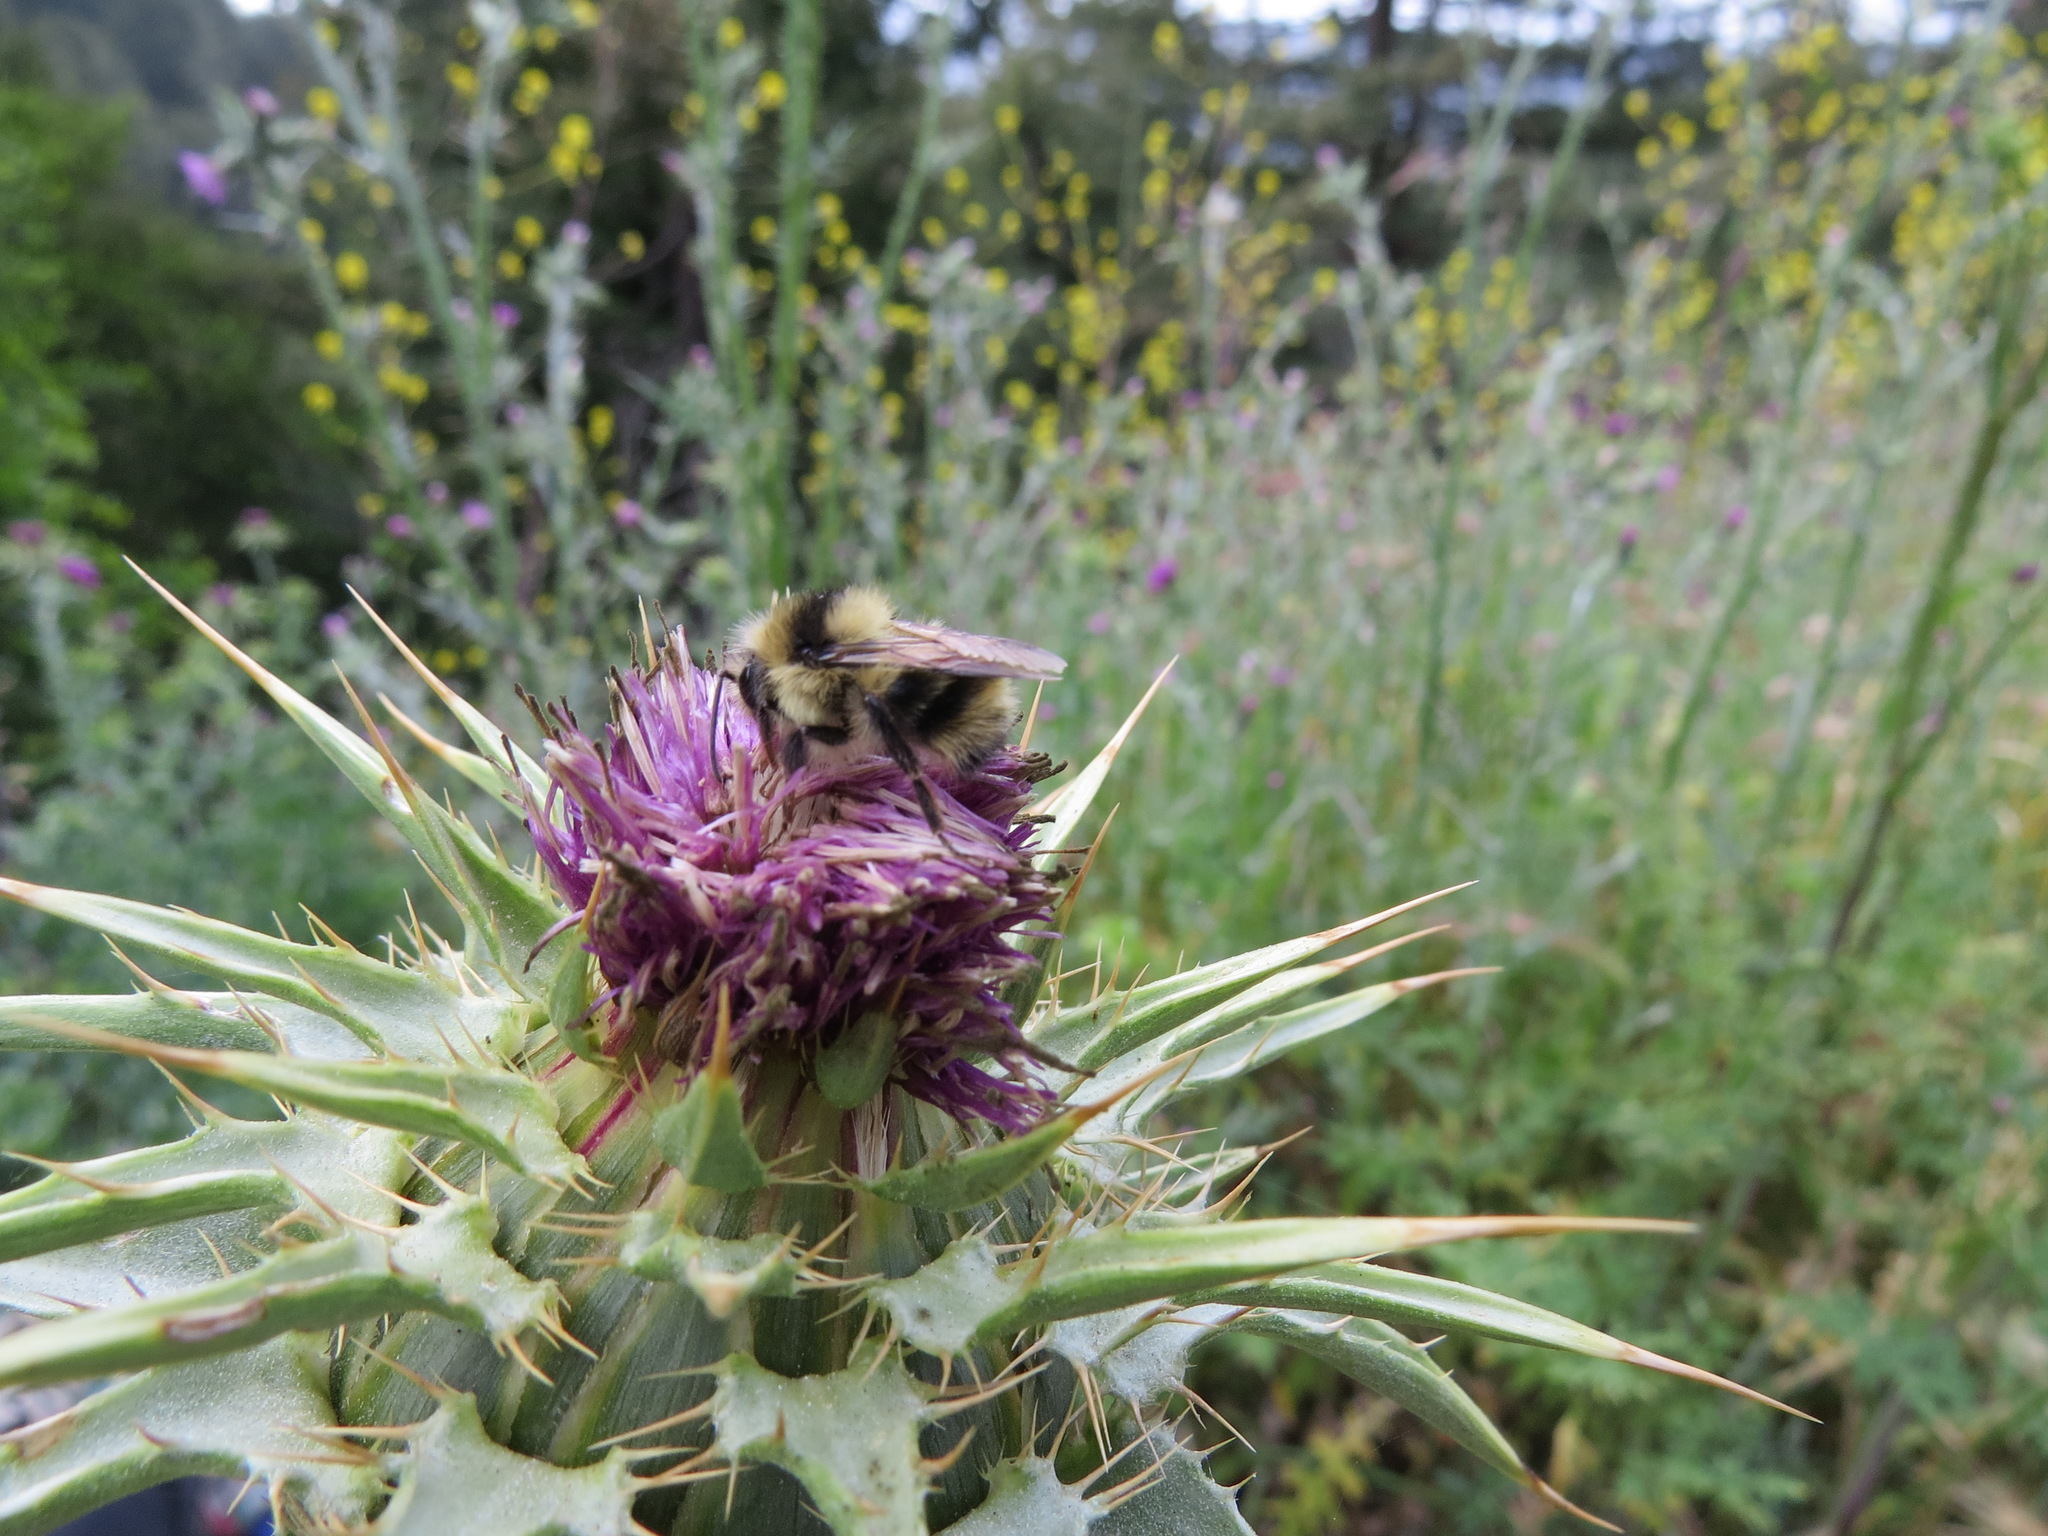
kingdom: Animalia
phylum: Arthropoda
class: Insecta
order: Hymenoptera
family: Apidae
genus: Bombus
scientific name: Bombus melanopygus
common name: Black tail bumble bee
